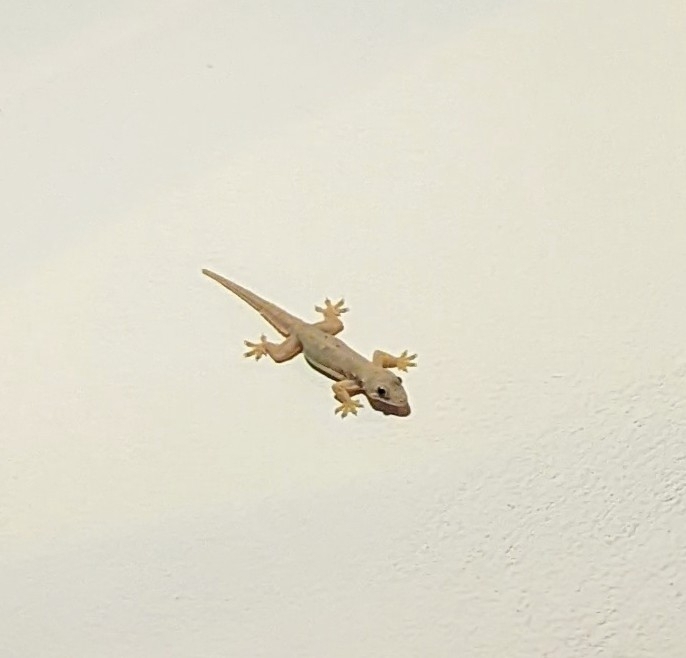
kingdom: Animalia
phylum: Chordata
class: Squamata
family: Gekkonidae
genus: Hemidactylus
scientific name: Hemidactylus platyurus
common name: Flat-tailed house gecko
